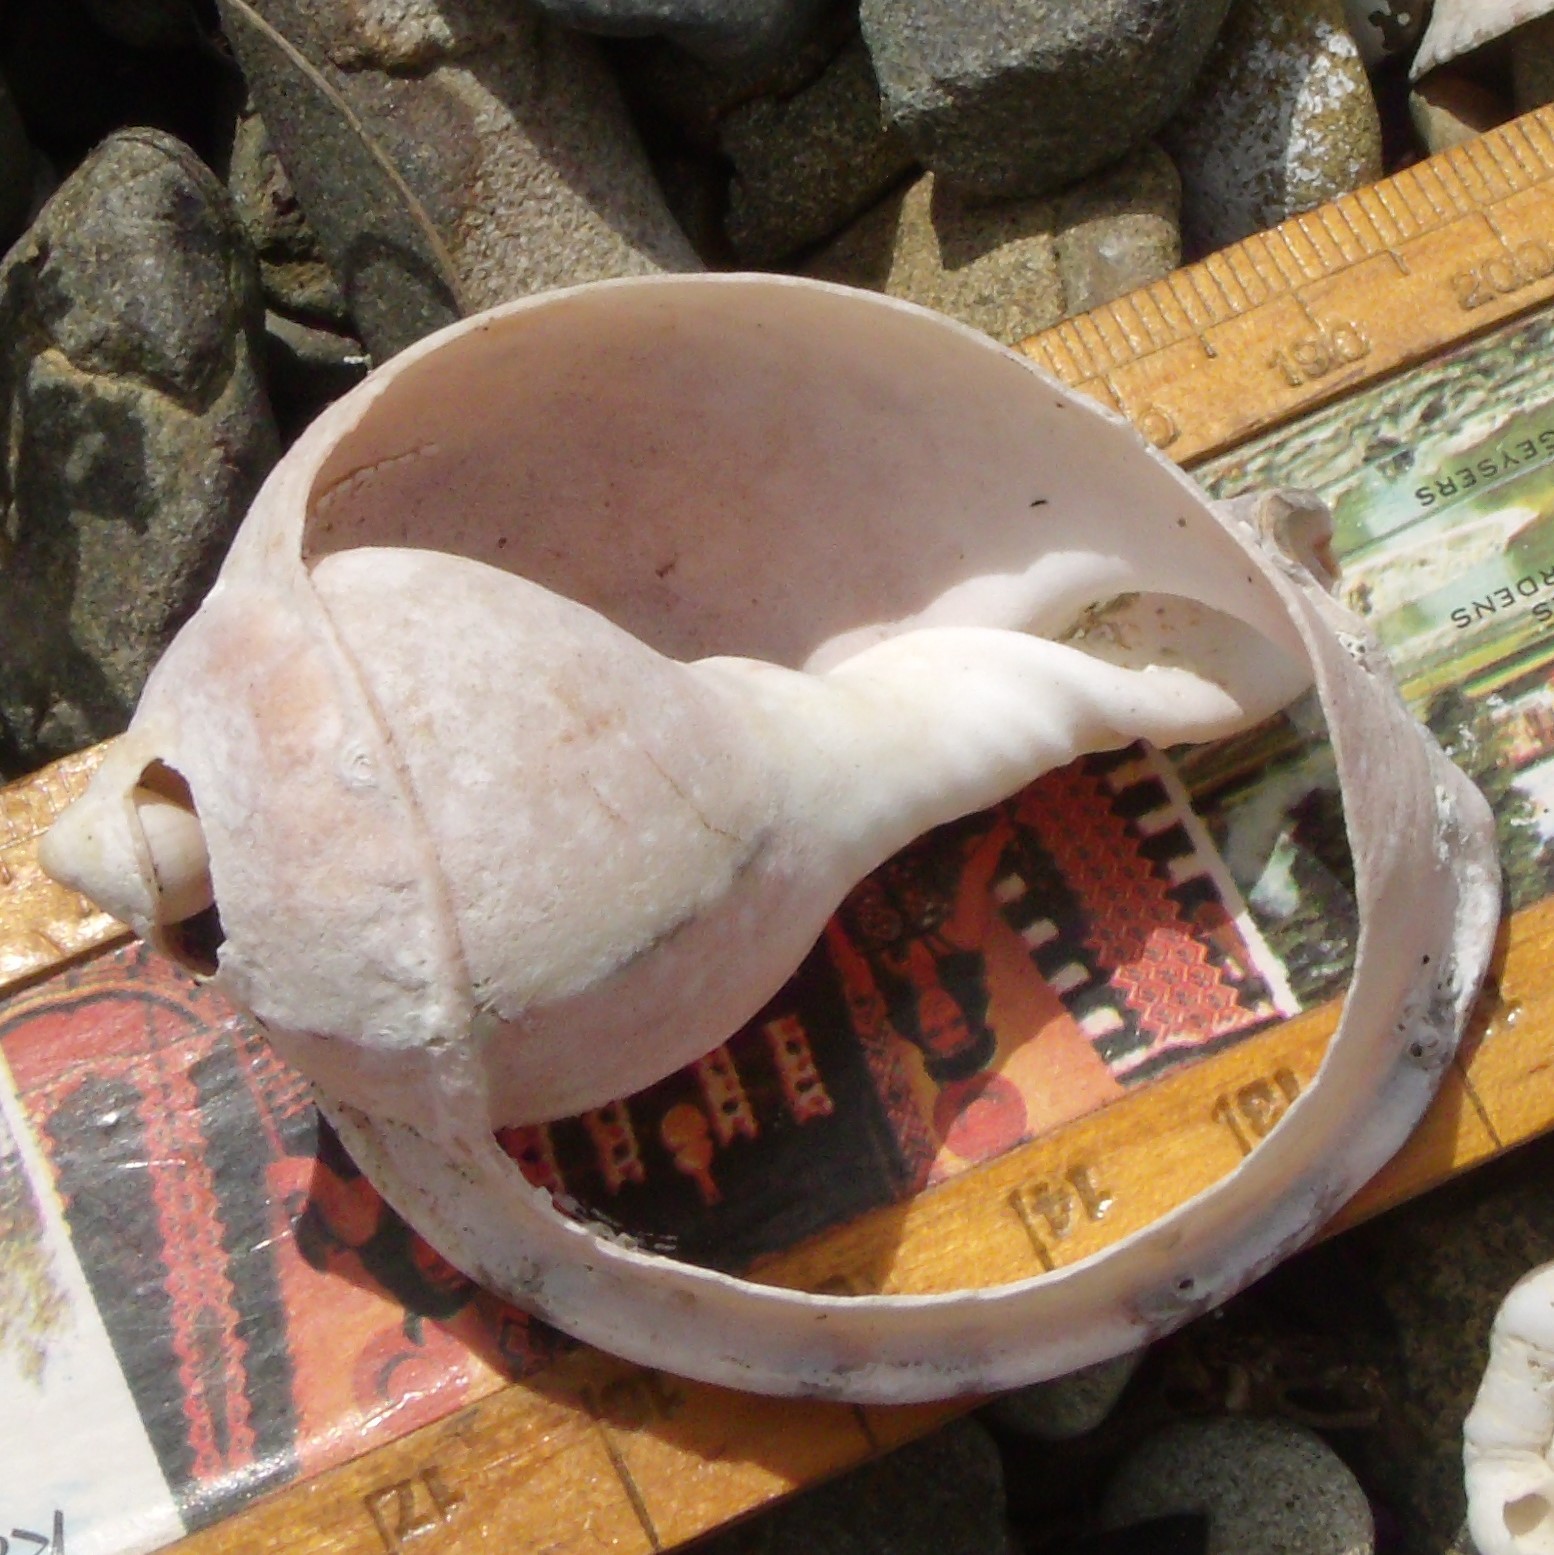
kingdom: Animalia
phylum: Mollusca
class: Gastropoda
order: Littorinimorpha
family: Cassidae
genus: Semicassis
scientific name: Semicassis pyrum
